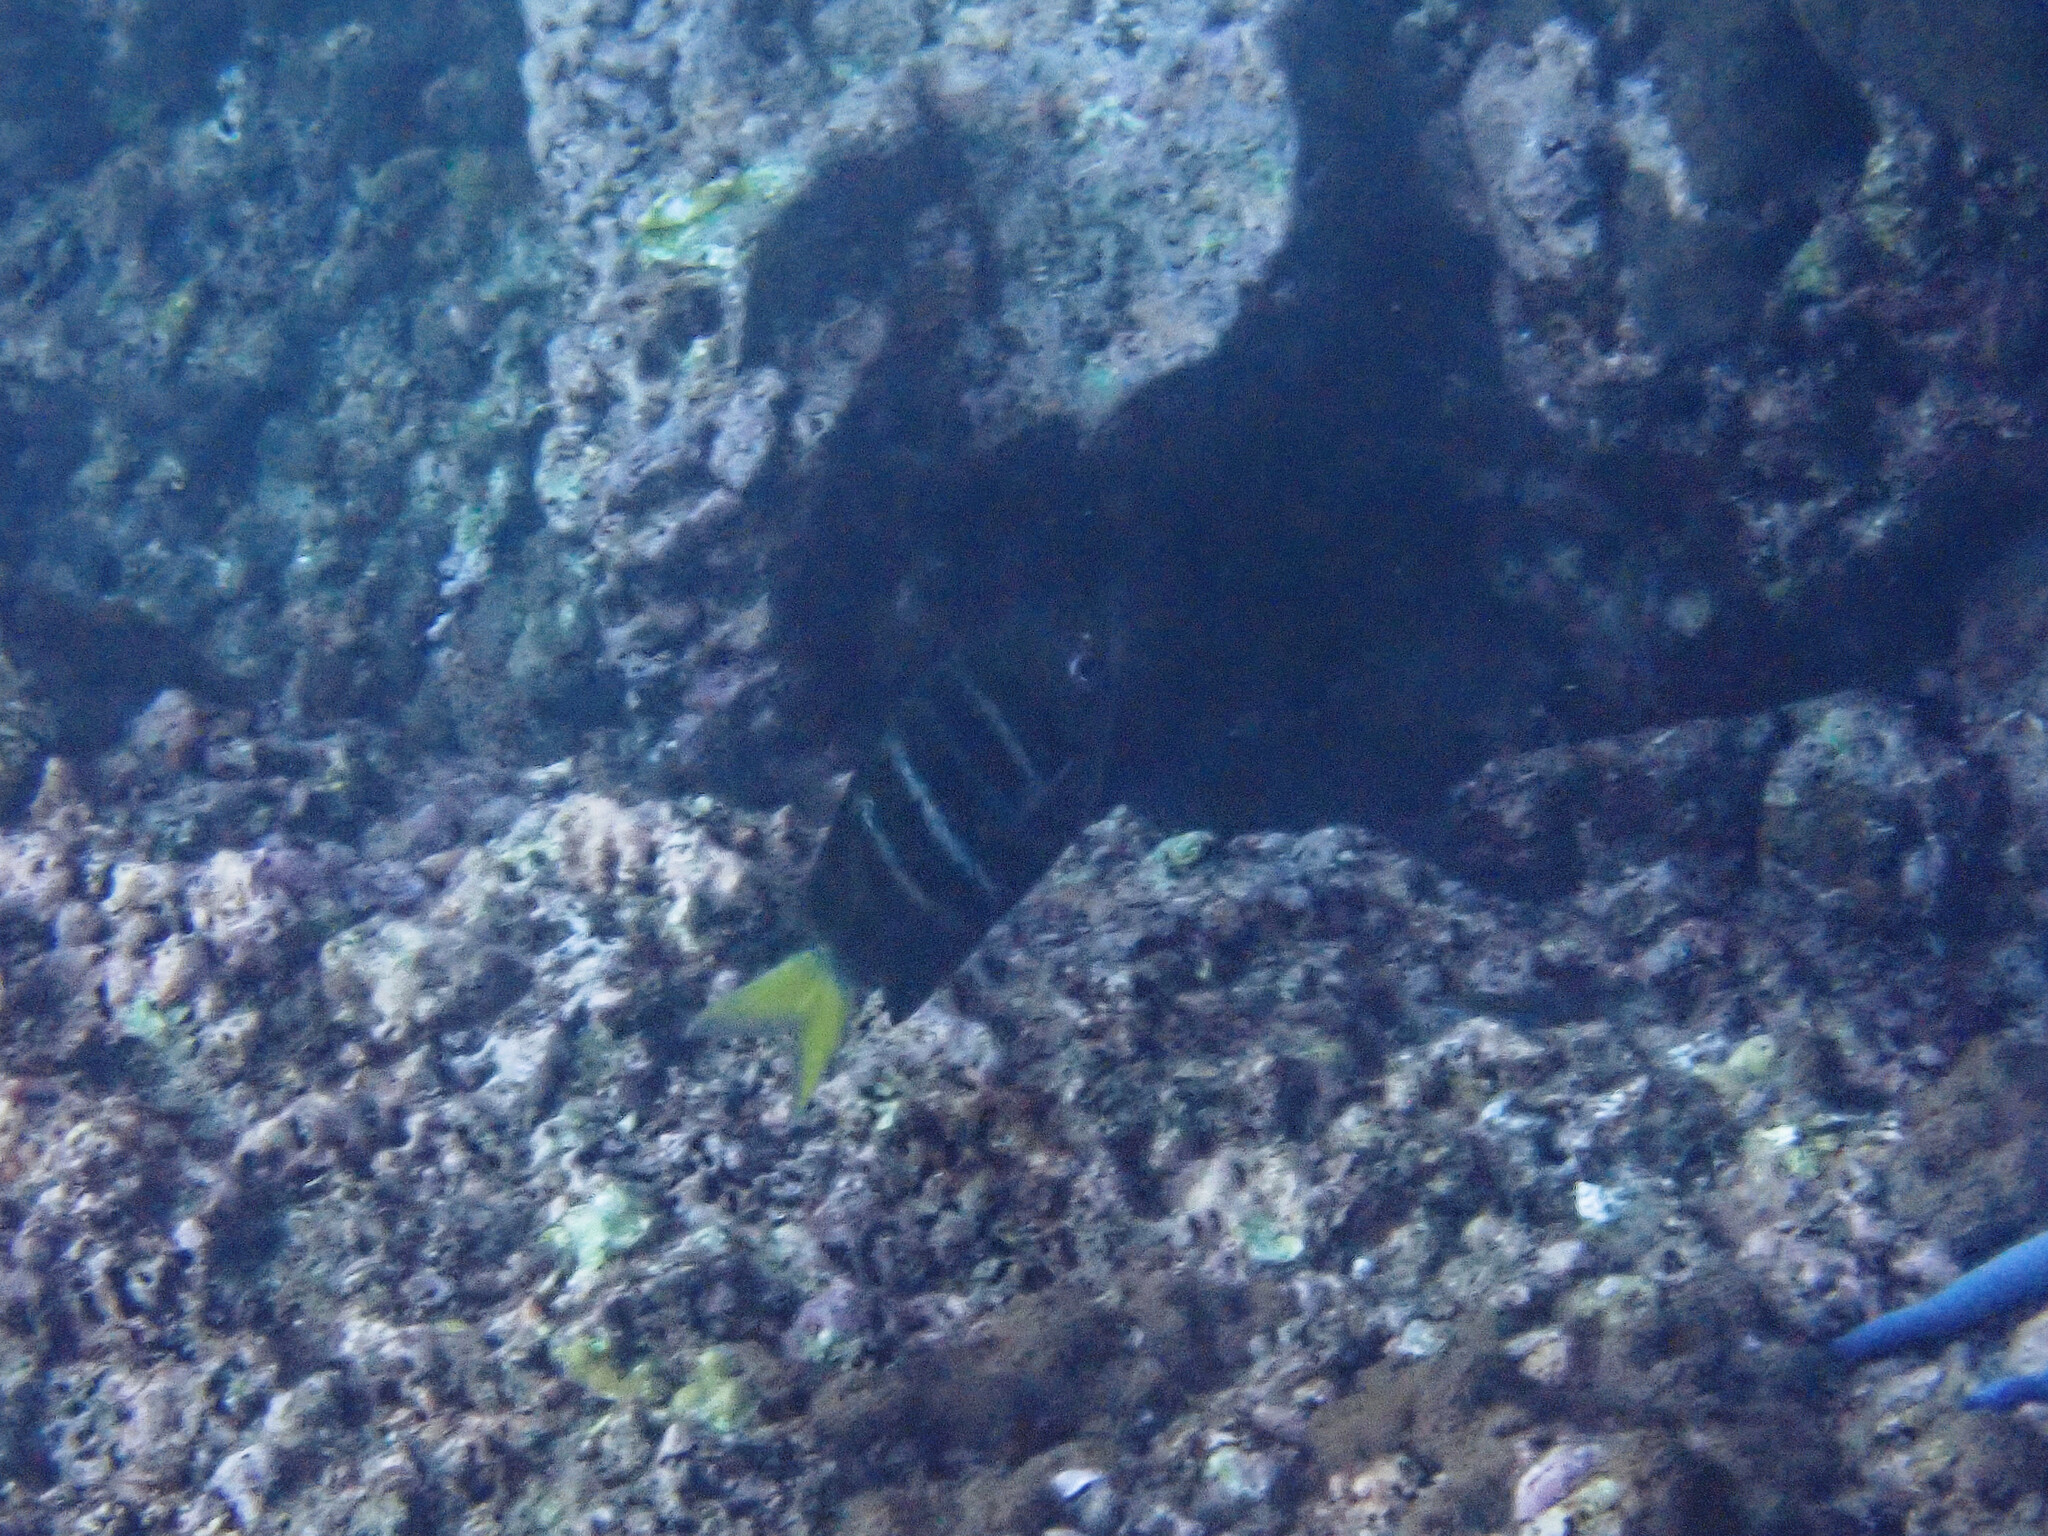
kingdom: Animalia
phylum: Chordata
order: Perciformes
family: Pomacentridae
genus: Abudefduf
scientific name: Abudefduf notatus
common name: Yellow-tail sergeant
